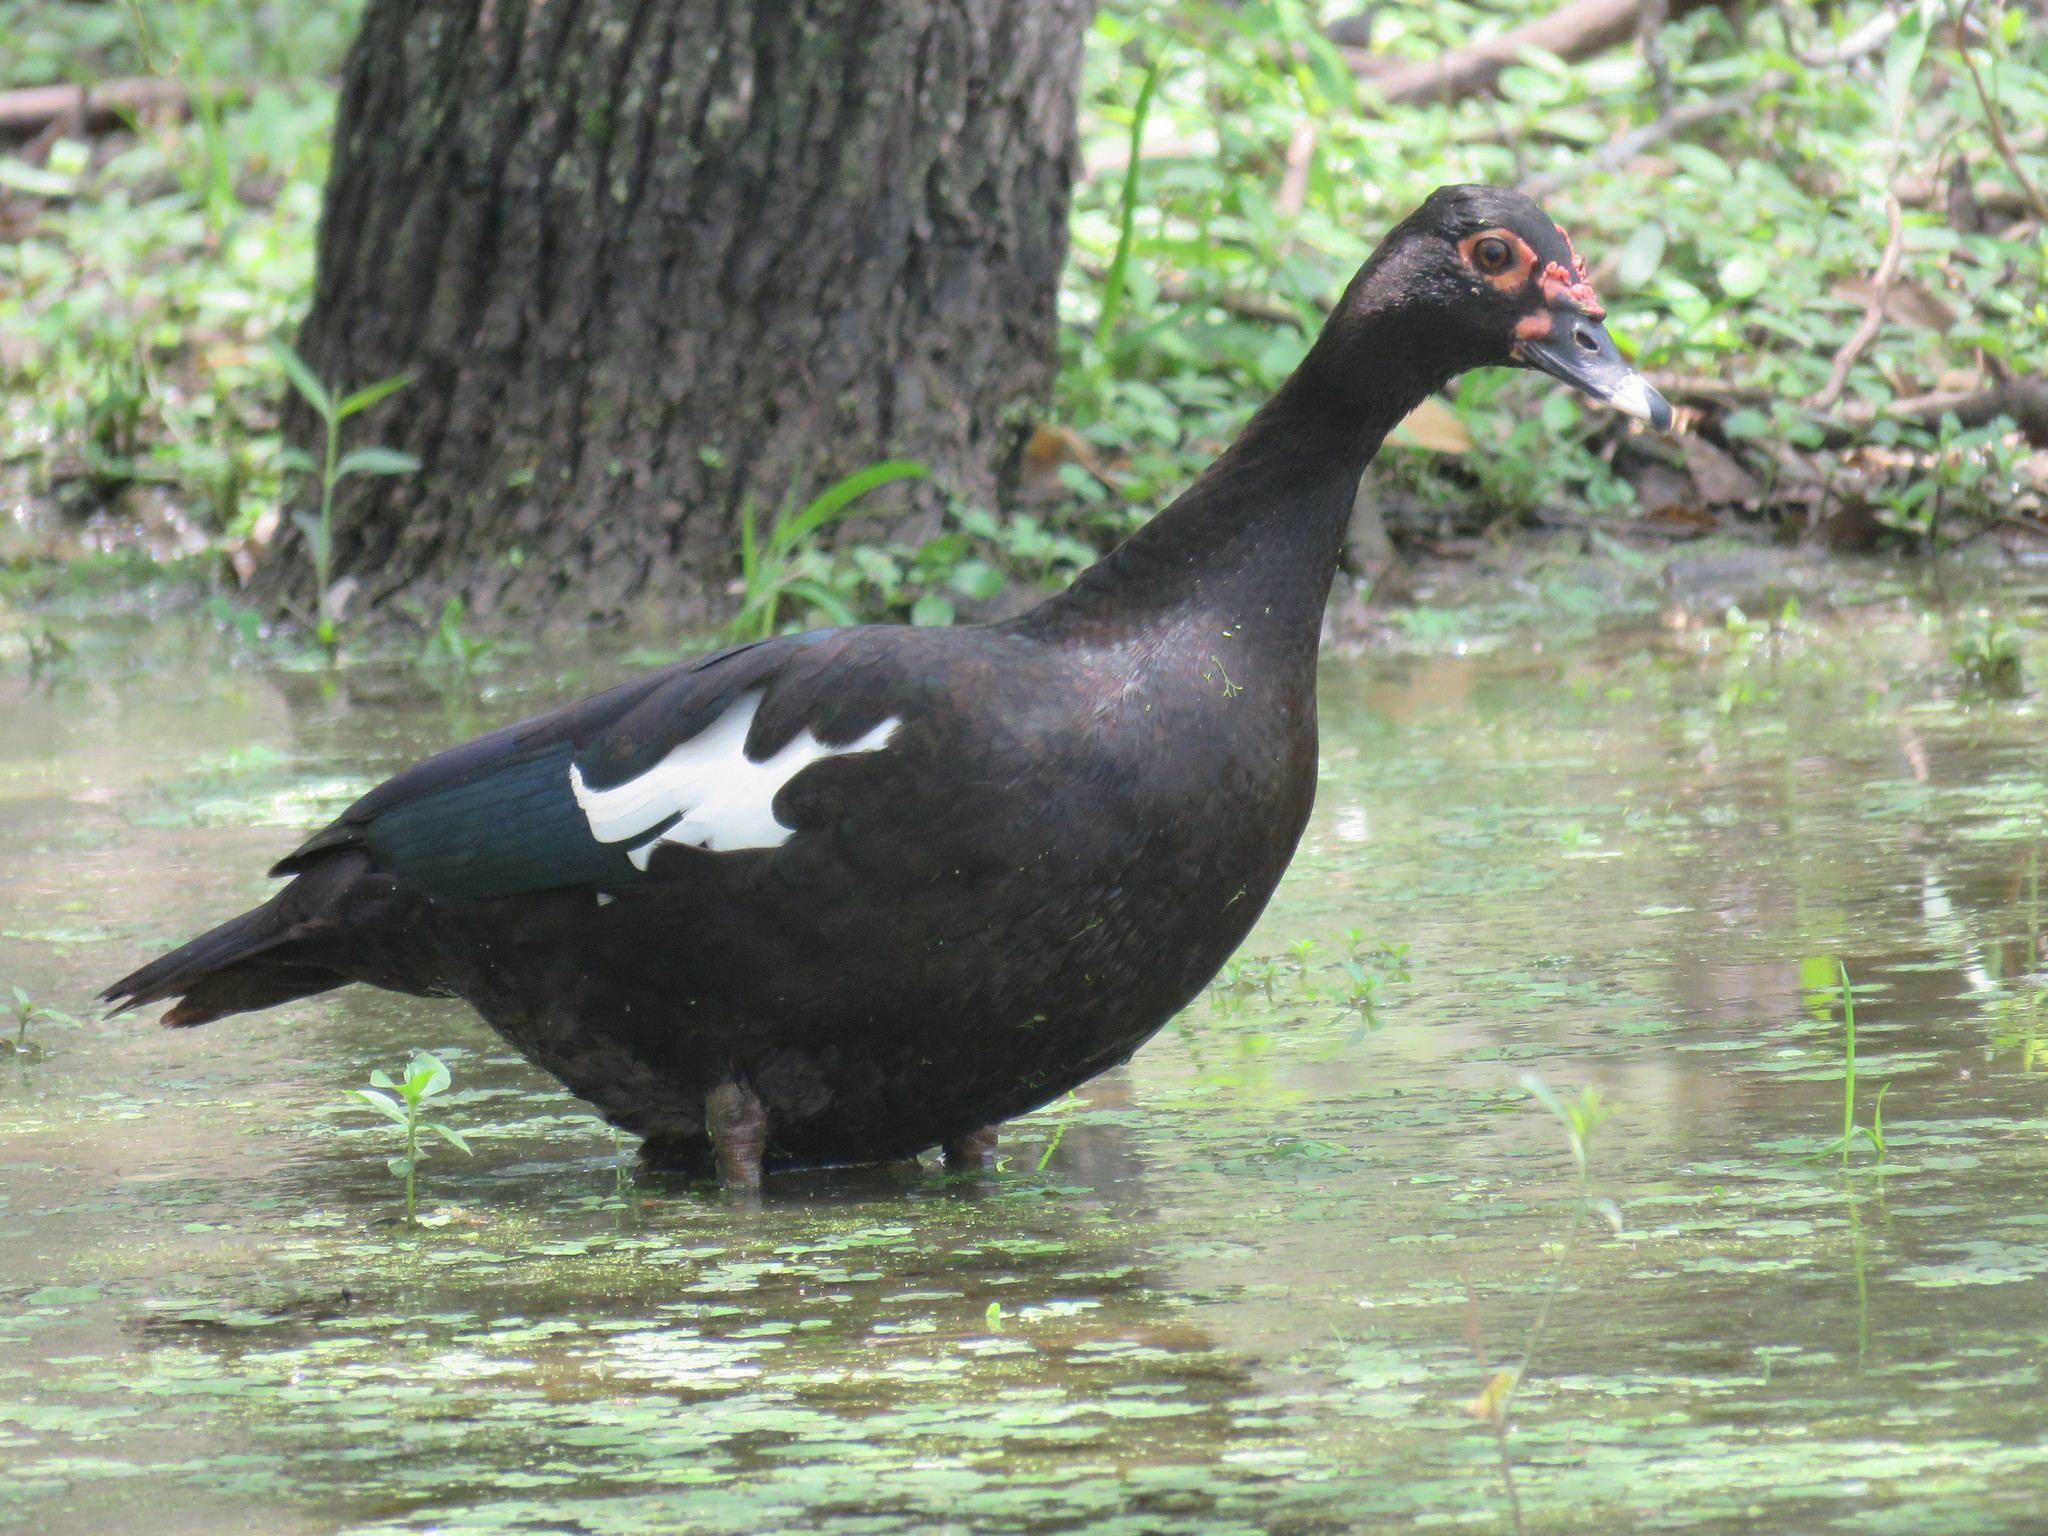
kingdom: Animalia
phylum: Chordata
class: Aves
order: Anseriformes
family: Anatidae
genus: Cairina
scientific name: Cairina moschata
